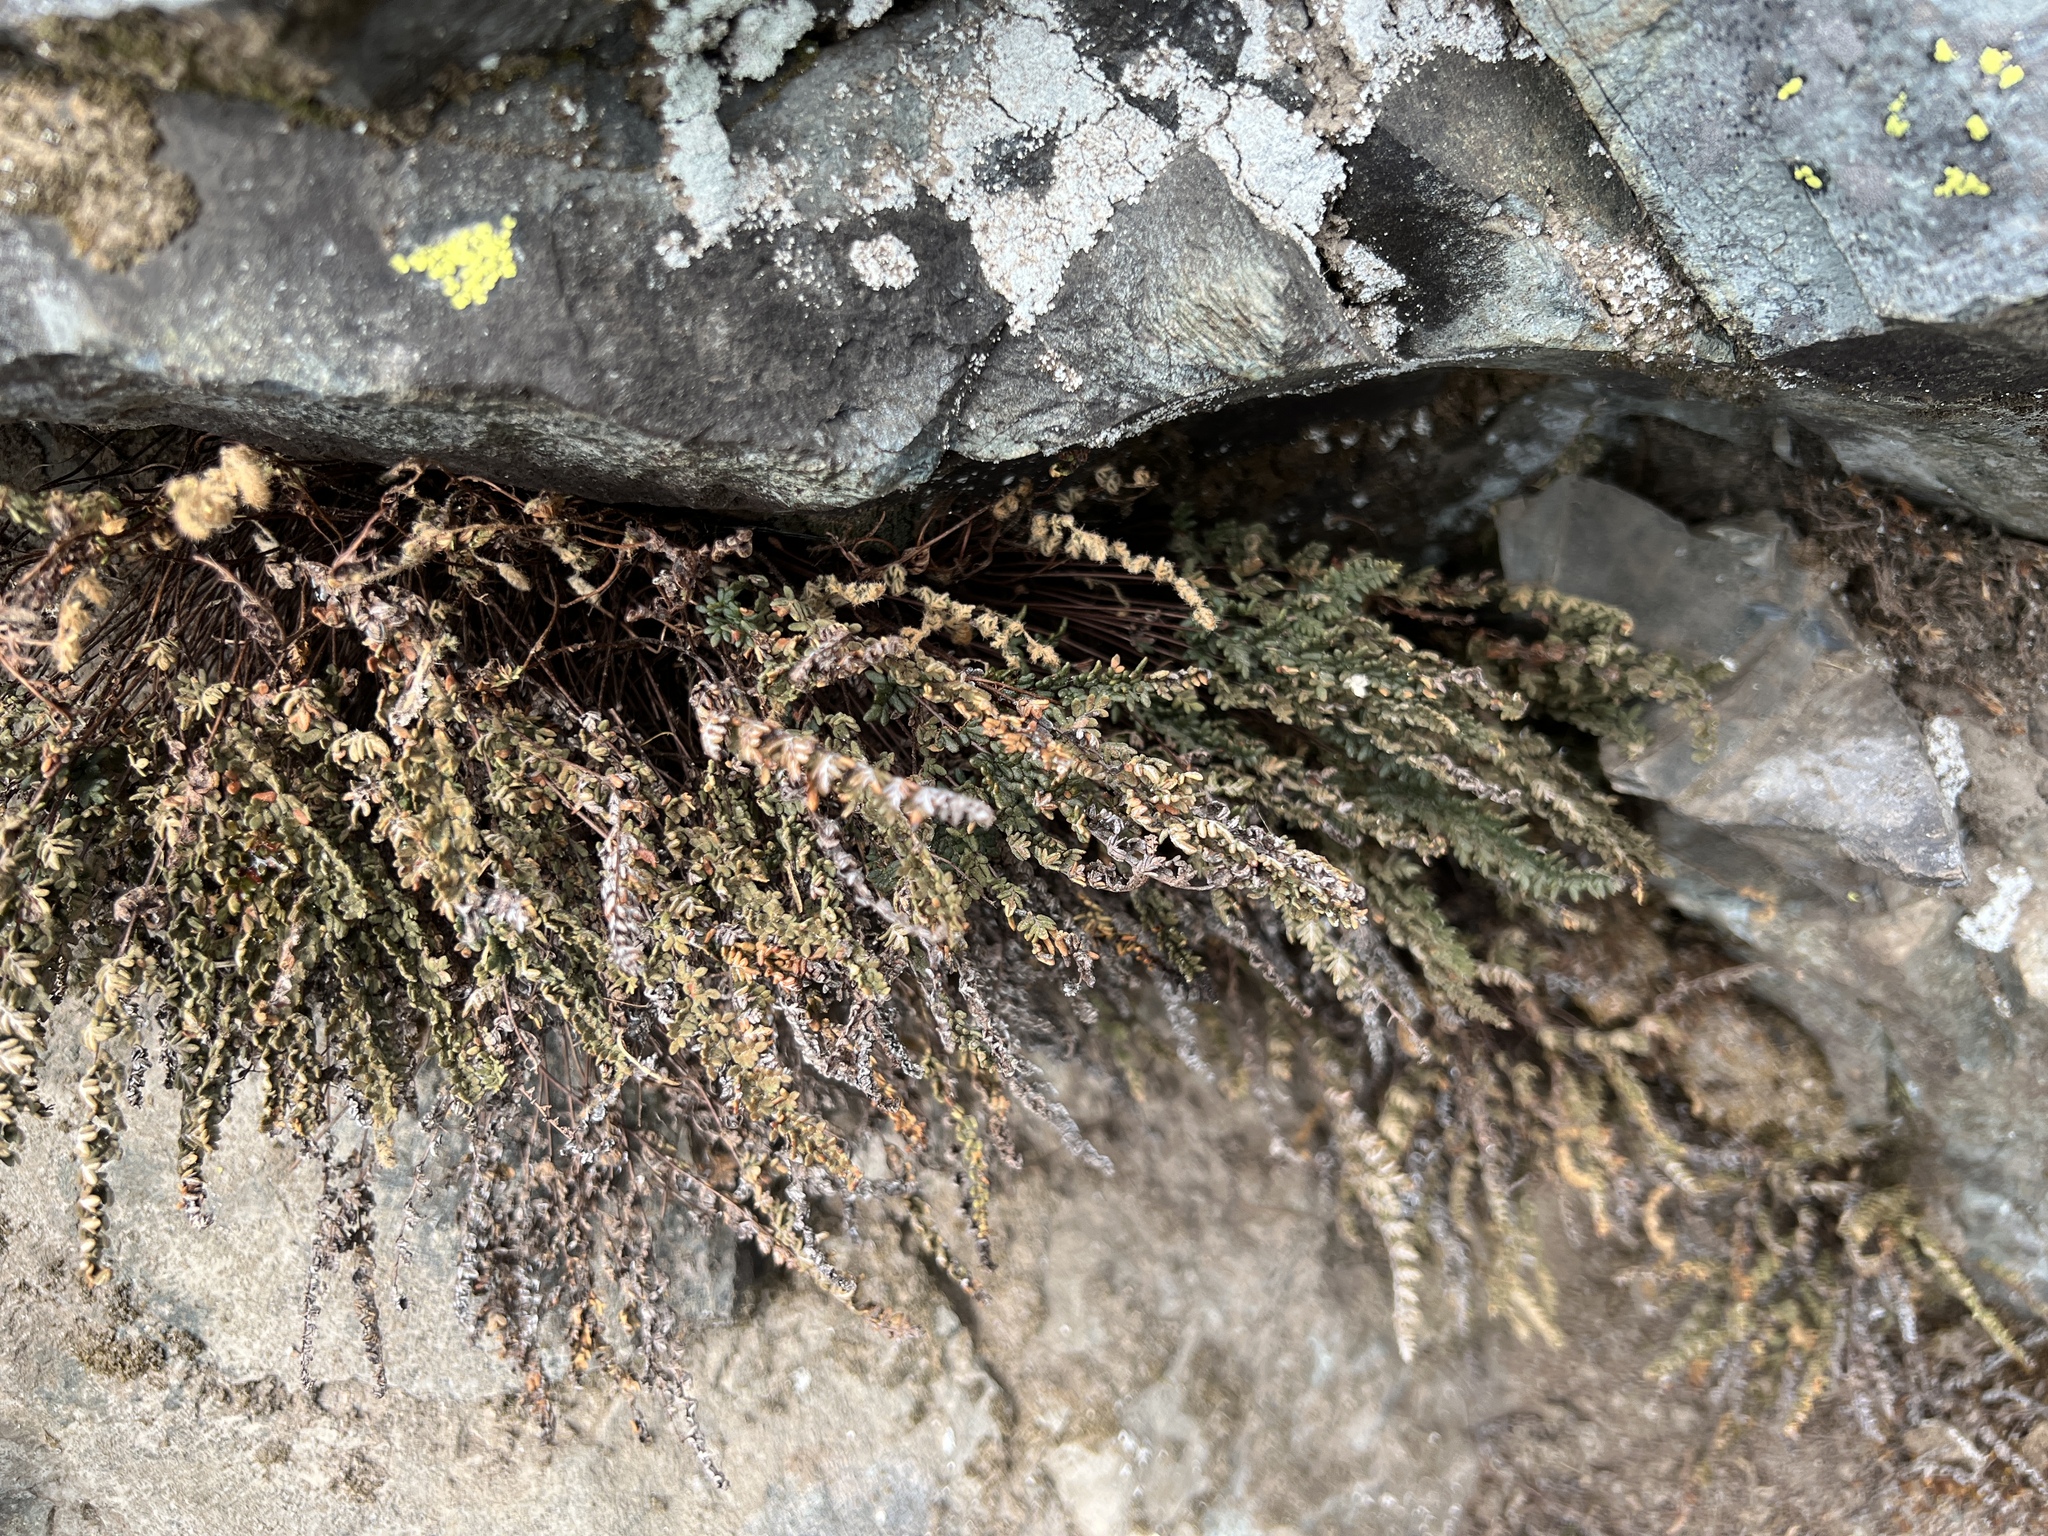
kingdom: Plantae
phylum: Tracheophyta
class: Polypodiopsida
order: Polypodiales
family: Pteridaceae
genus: Myriopteris
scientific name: Myriopteris gracillima
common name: Lace fern
